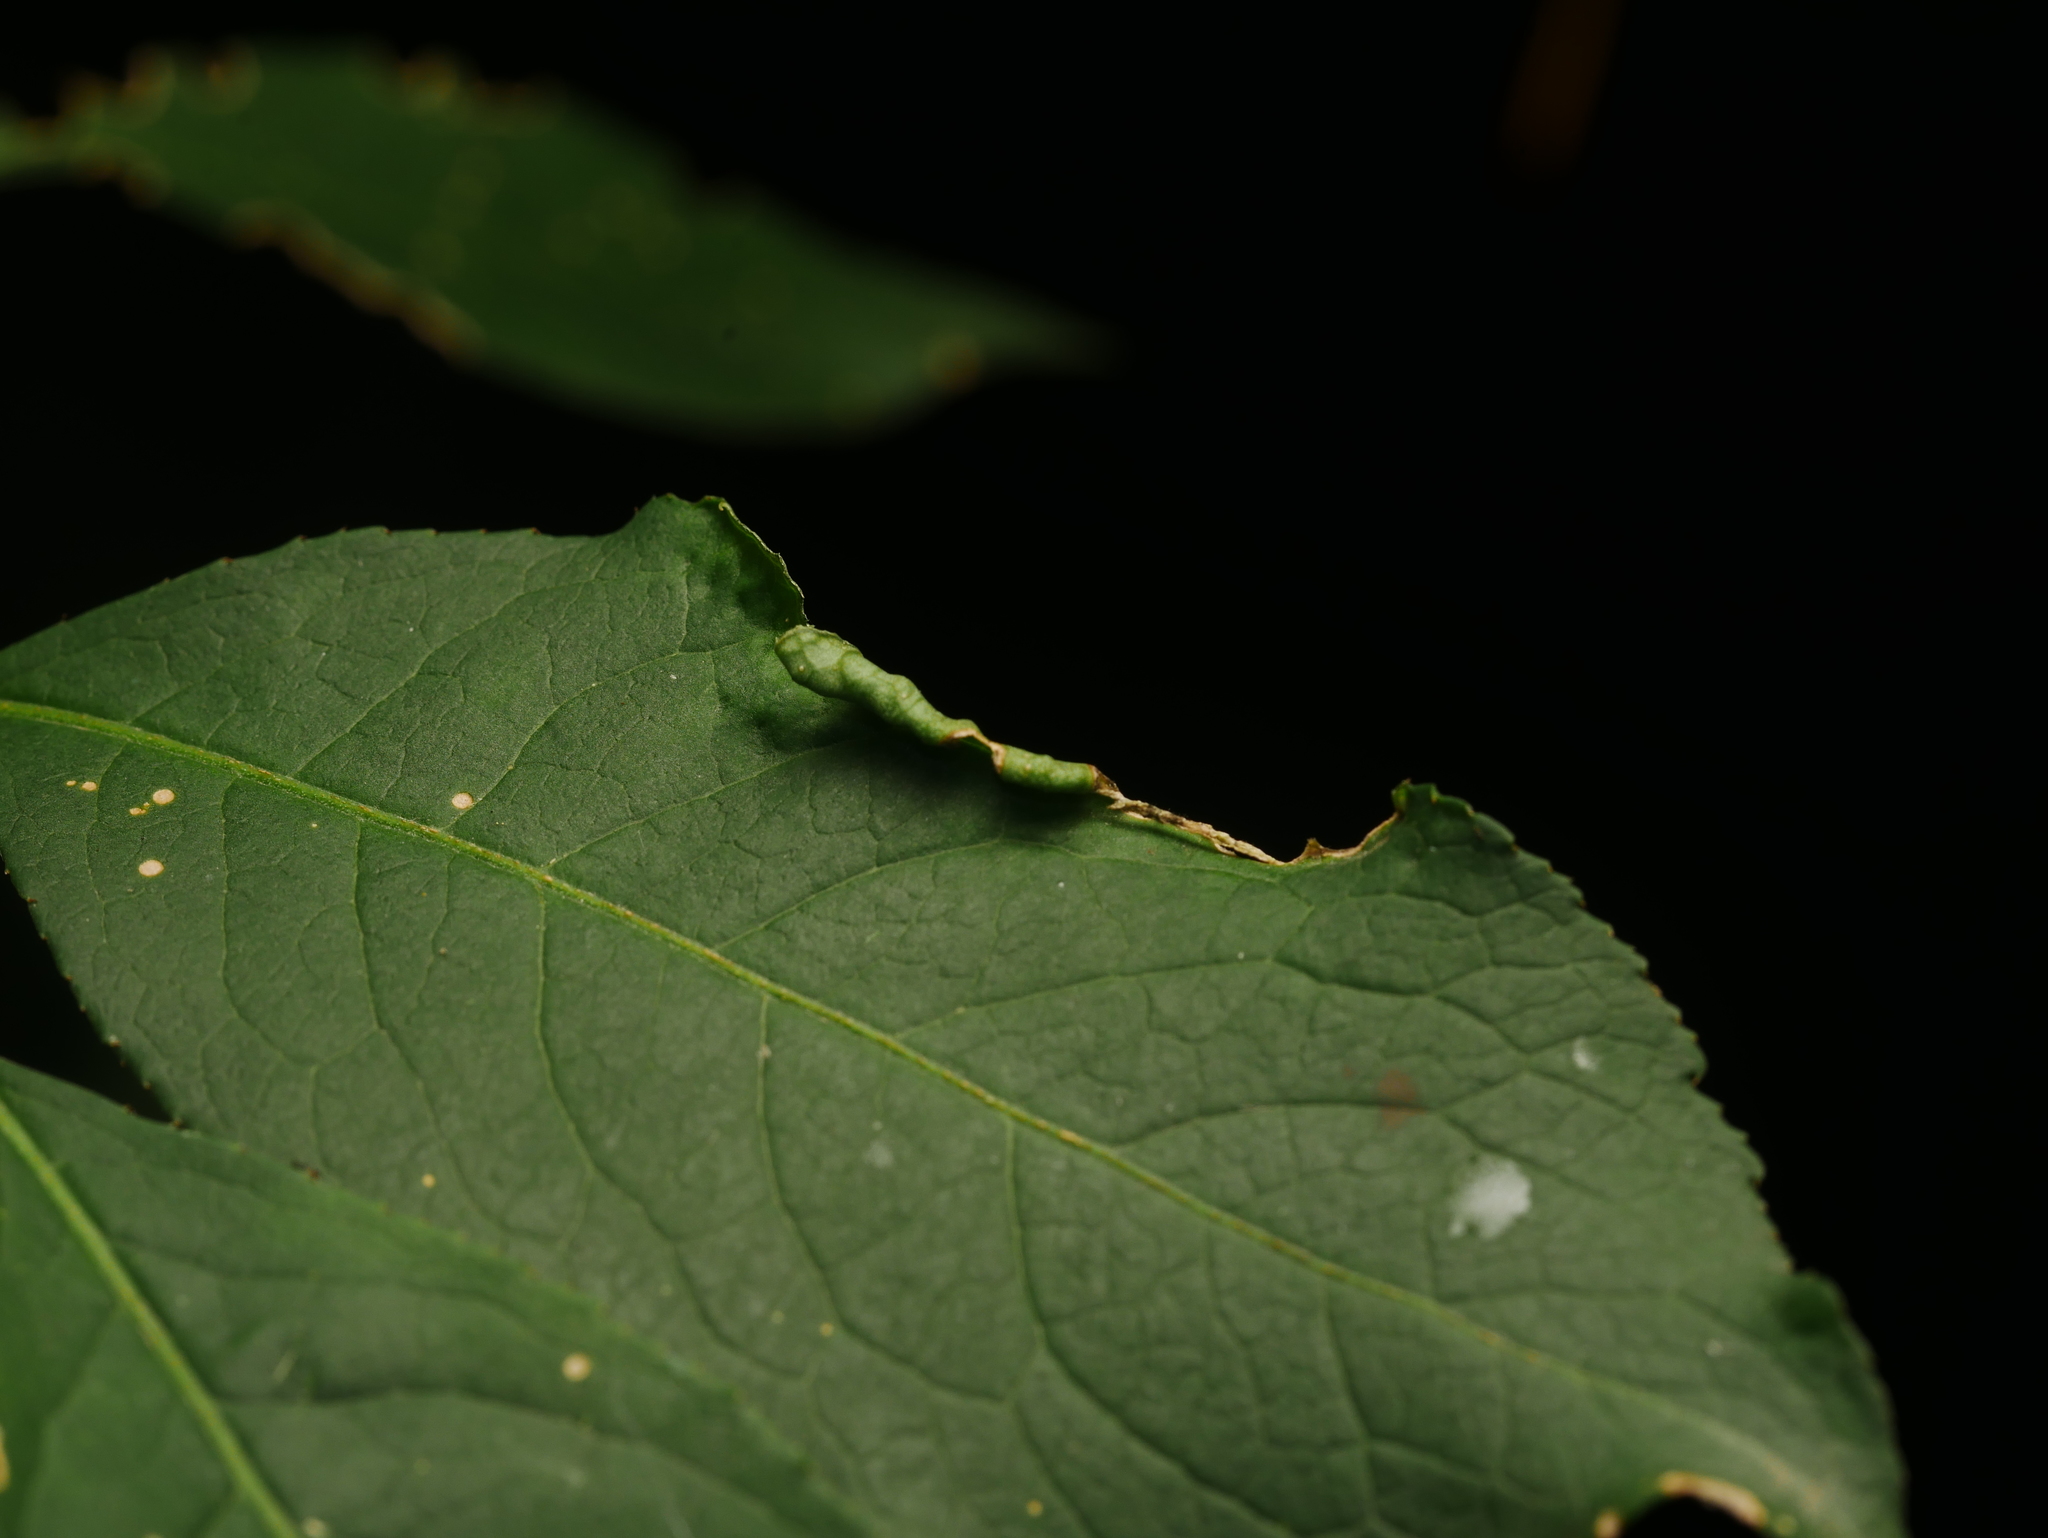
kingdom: Animalia
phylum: Arthropoda
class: Arachnida
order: Trombidiformes
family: Eriophyidae
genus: Stenacis
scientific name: Stenacis evonymi
